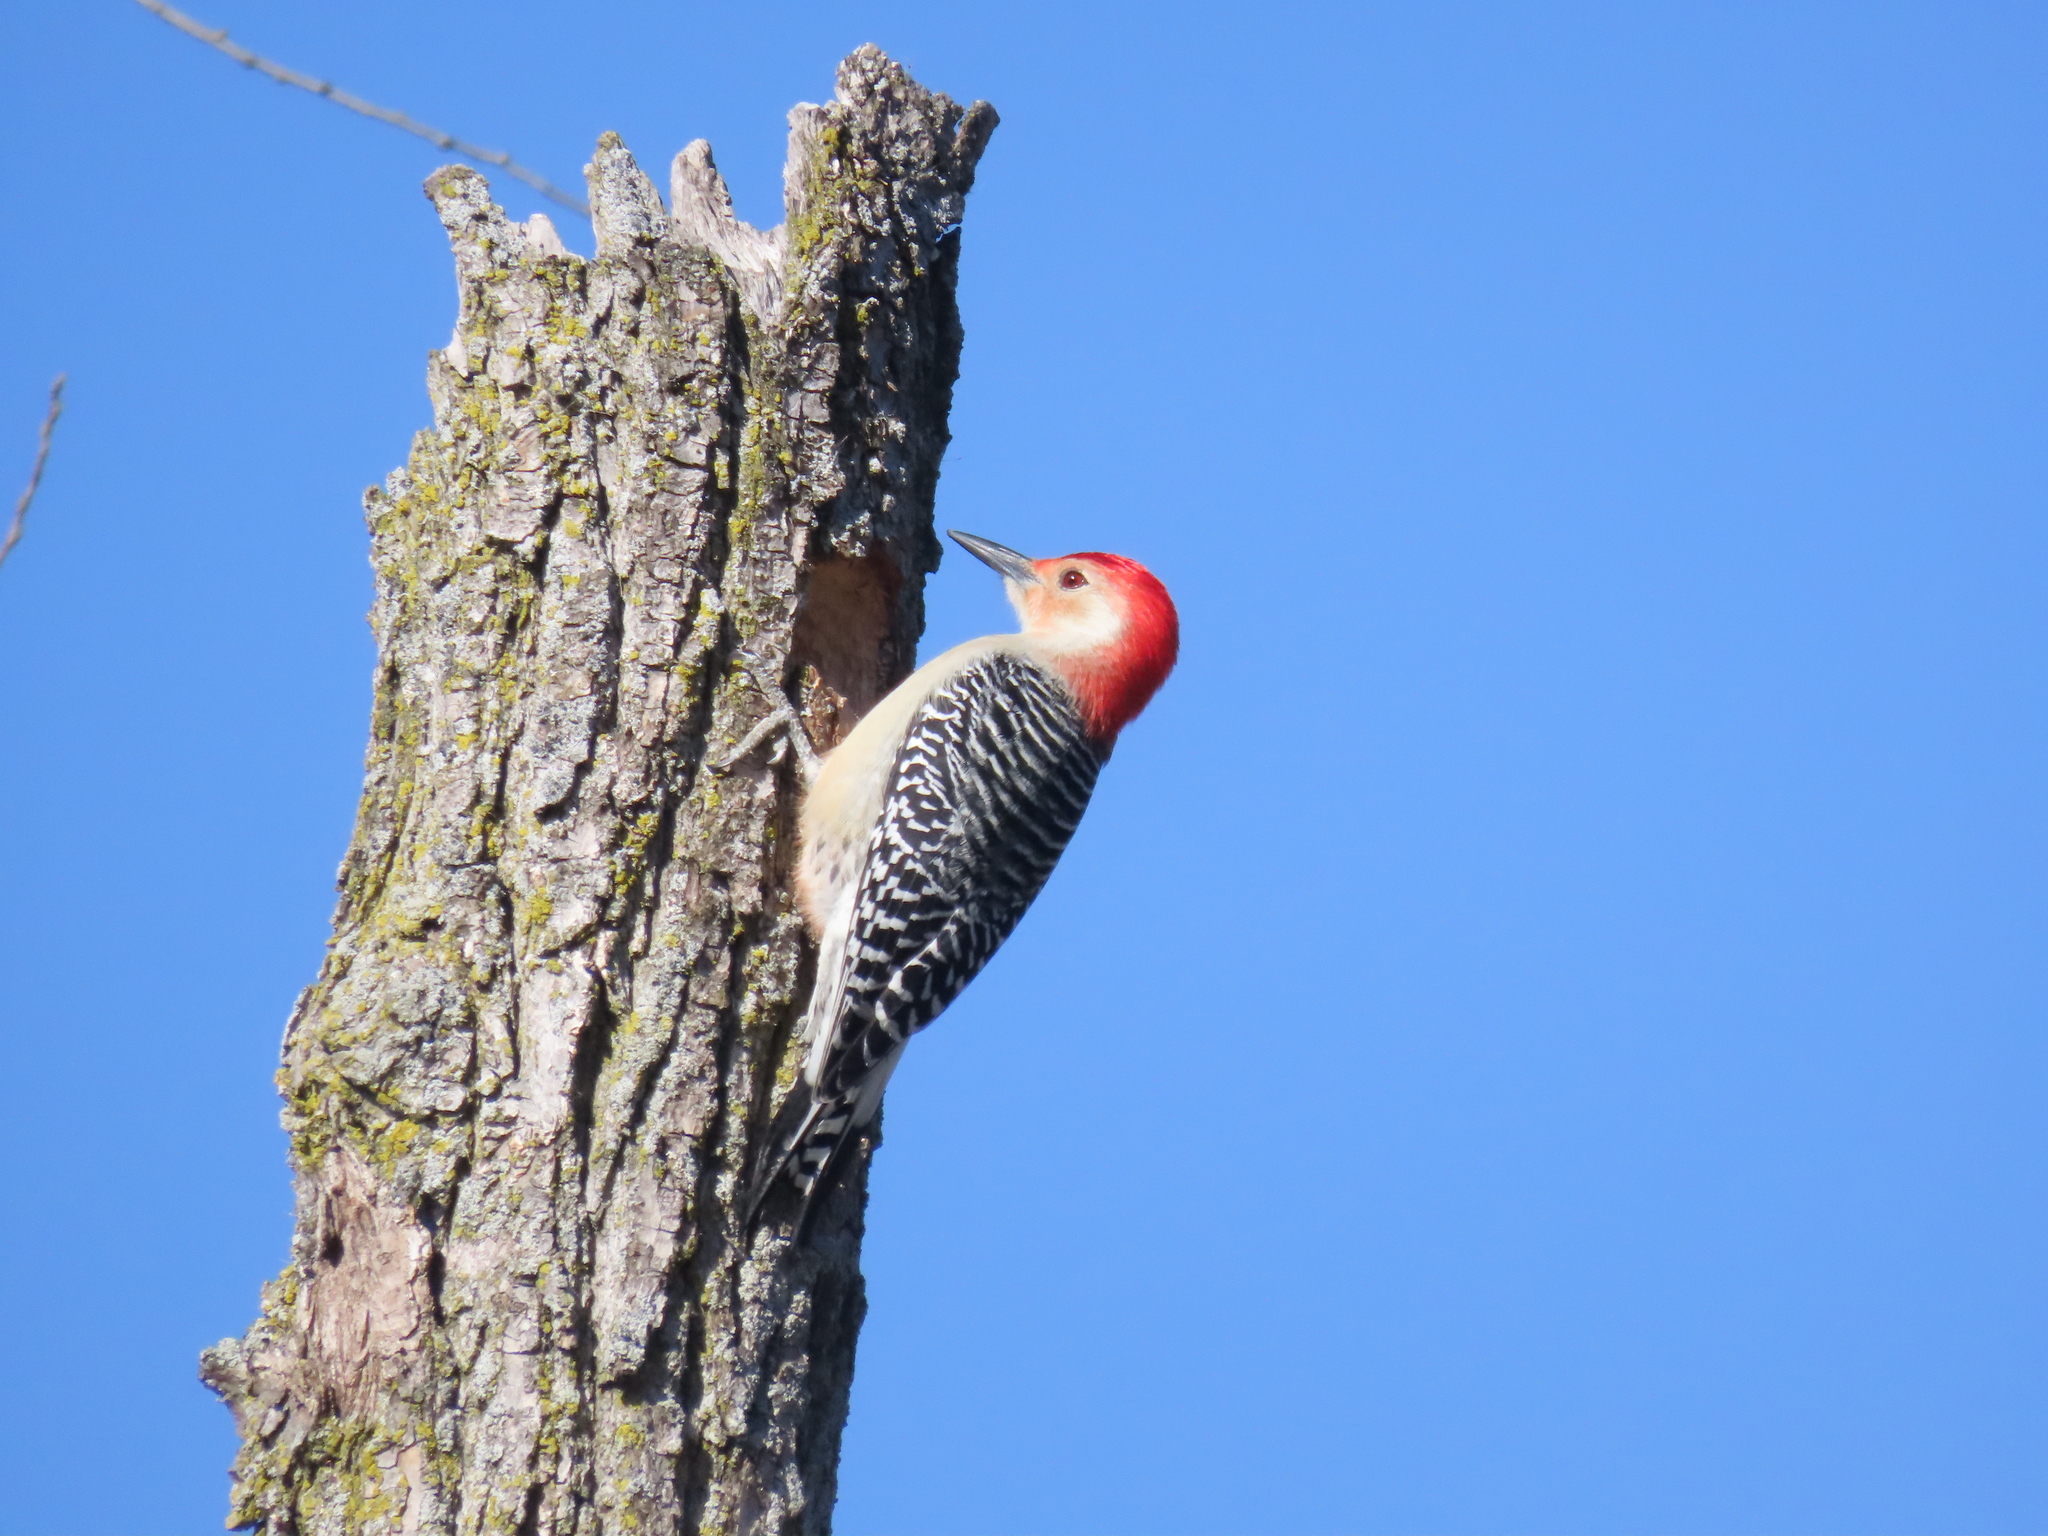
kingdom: Animalia
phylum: Chordata
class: Aves
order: Piciformes
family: Picidae
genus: Melanerpes
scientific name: Melanerpes carolinus
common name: Red-bellied woodpecker
